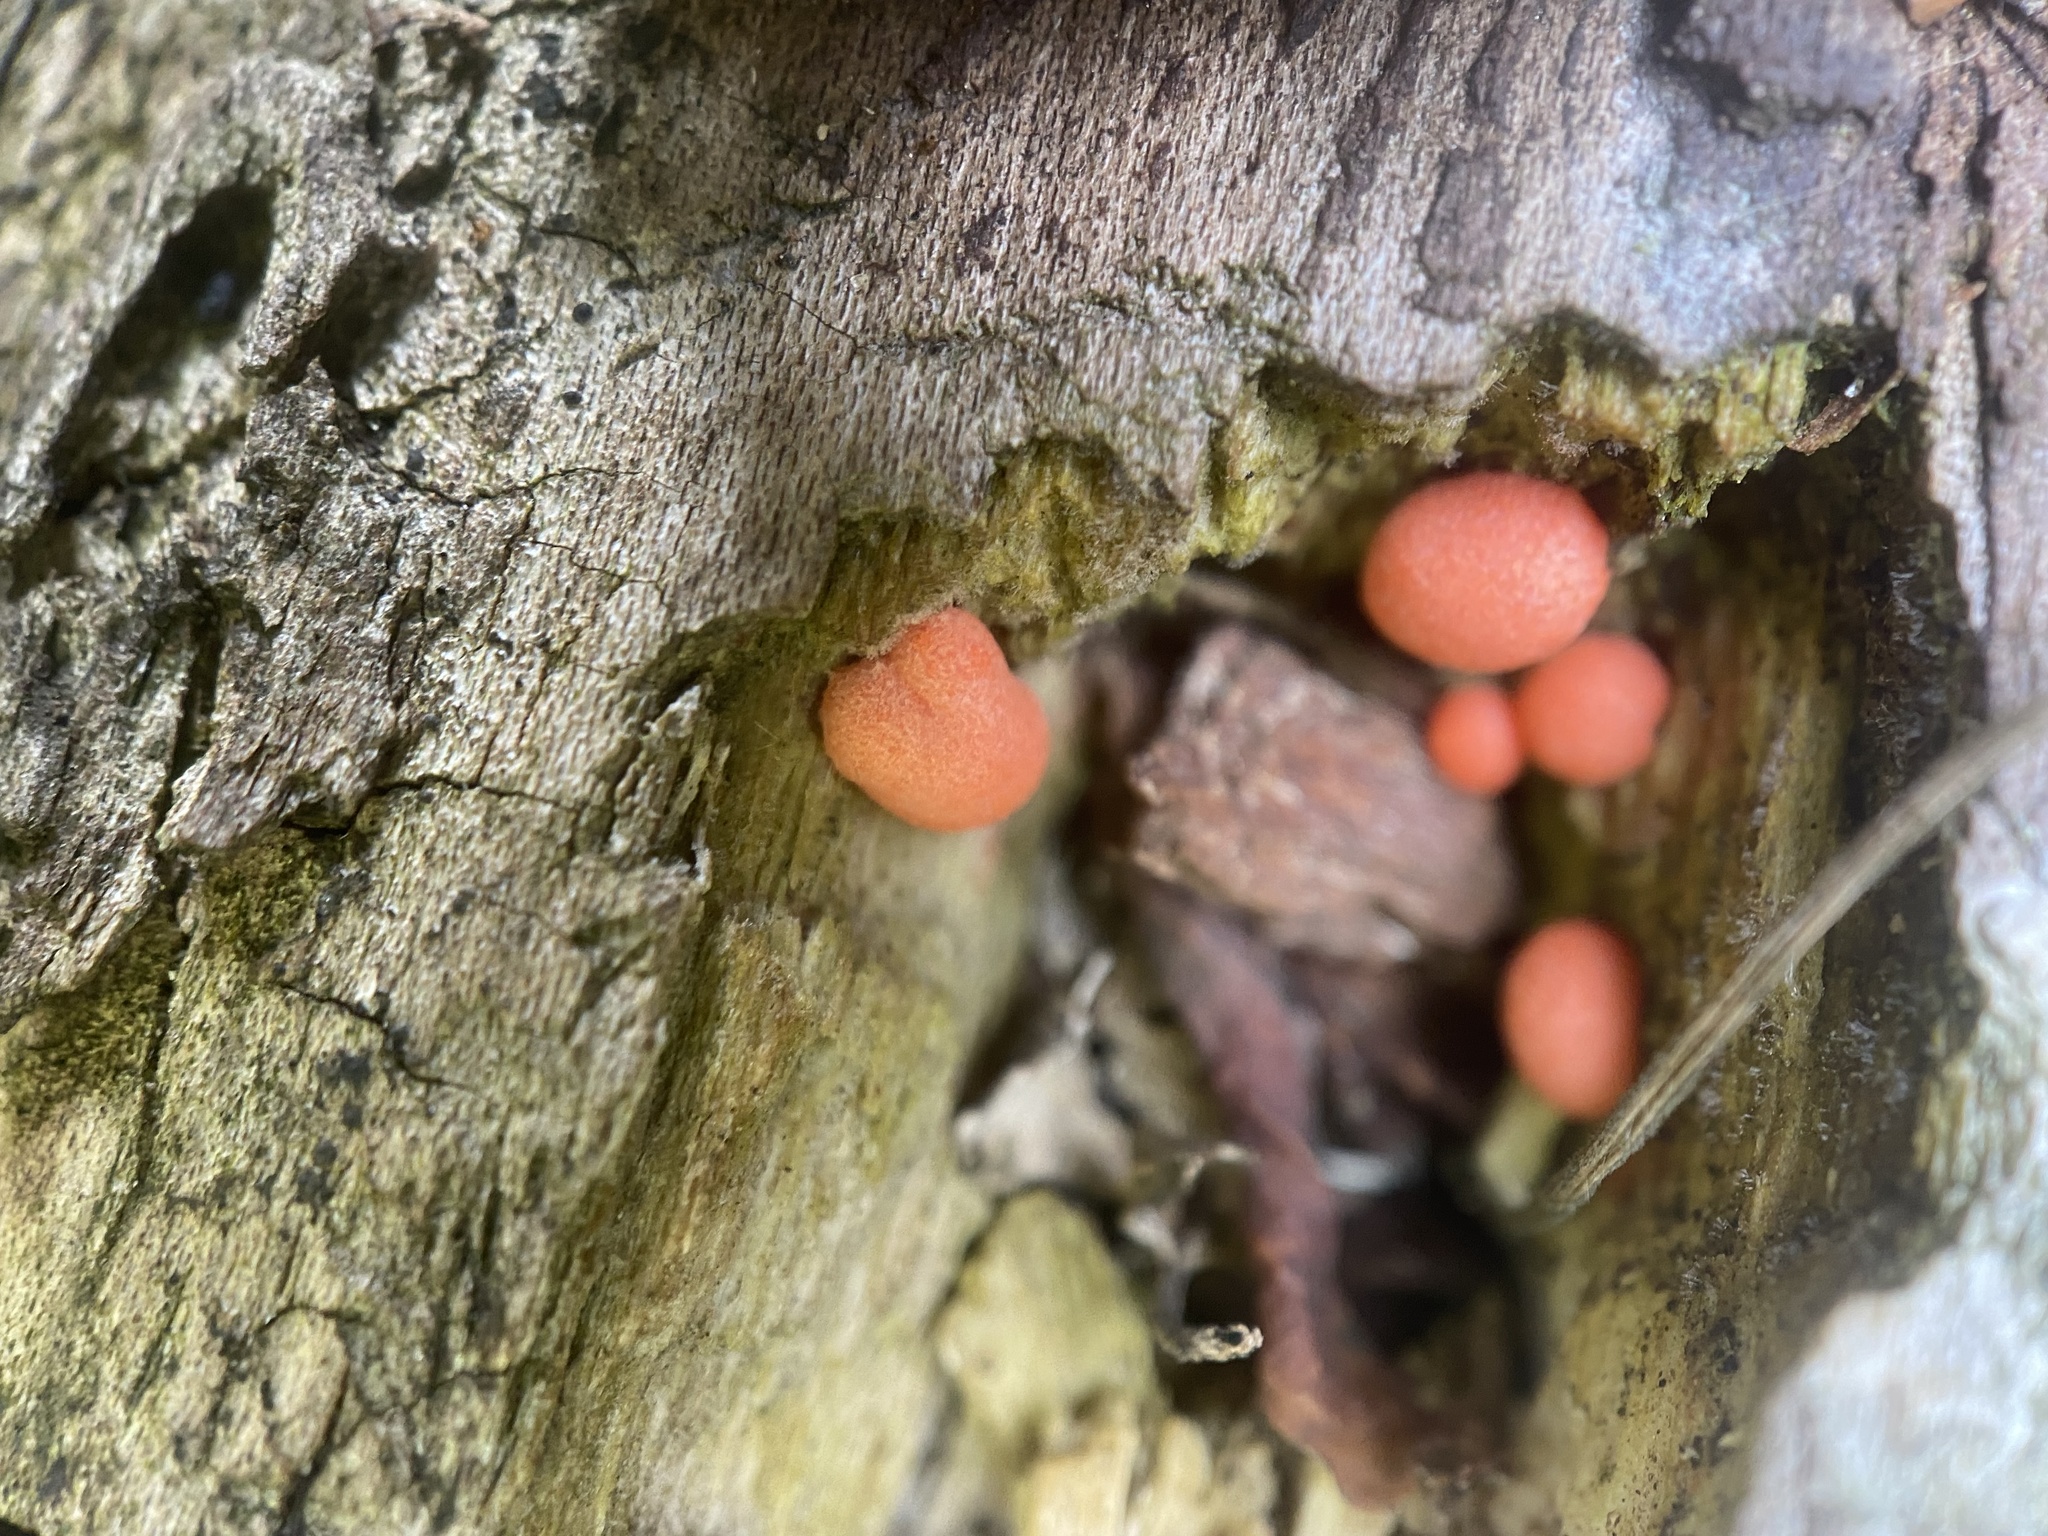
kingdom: Protozoa
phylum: Mycetozoa
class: Myxomycetes
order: Cribrariales
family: Tubiferaceae
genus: Lycogala
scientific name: Lycogala epidendrum
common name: Wolf's milk
